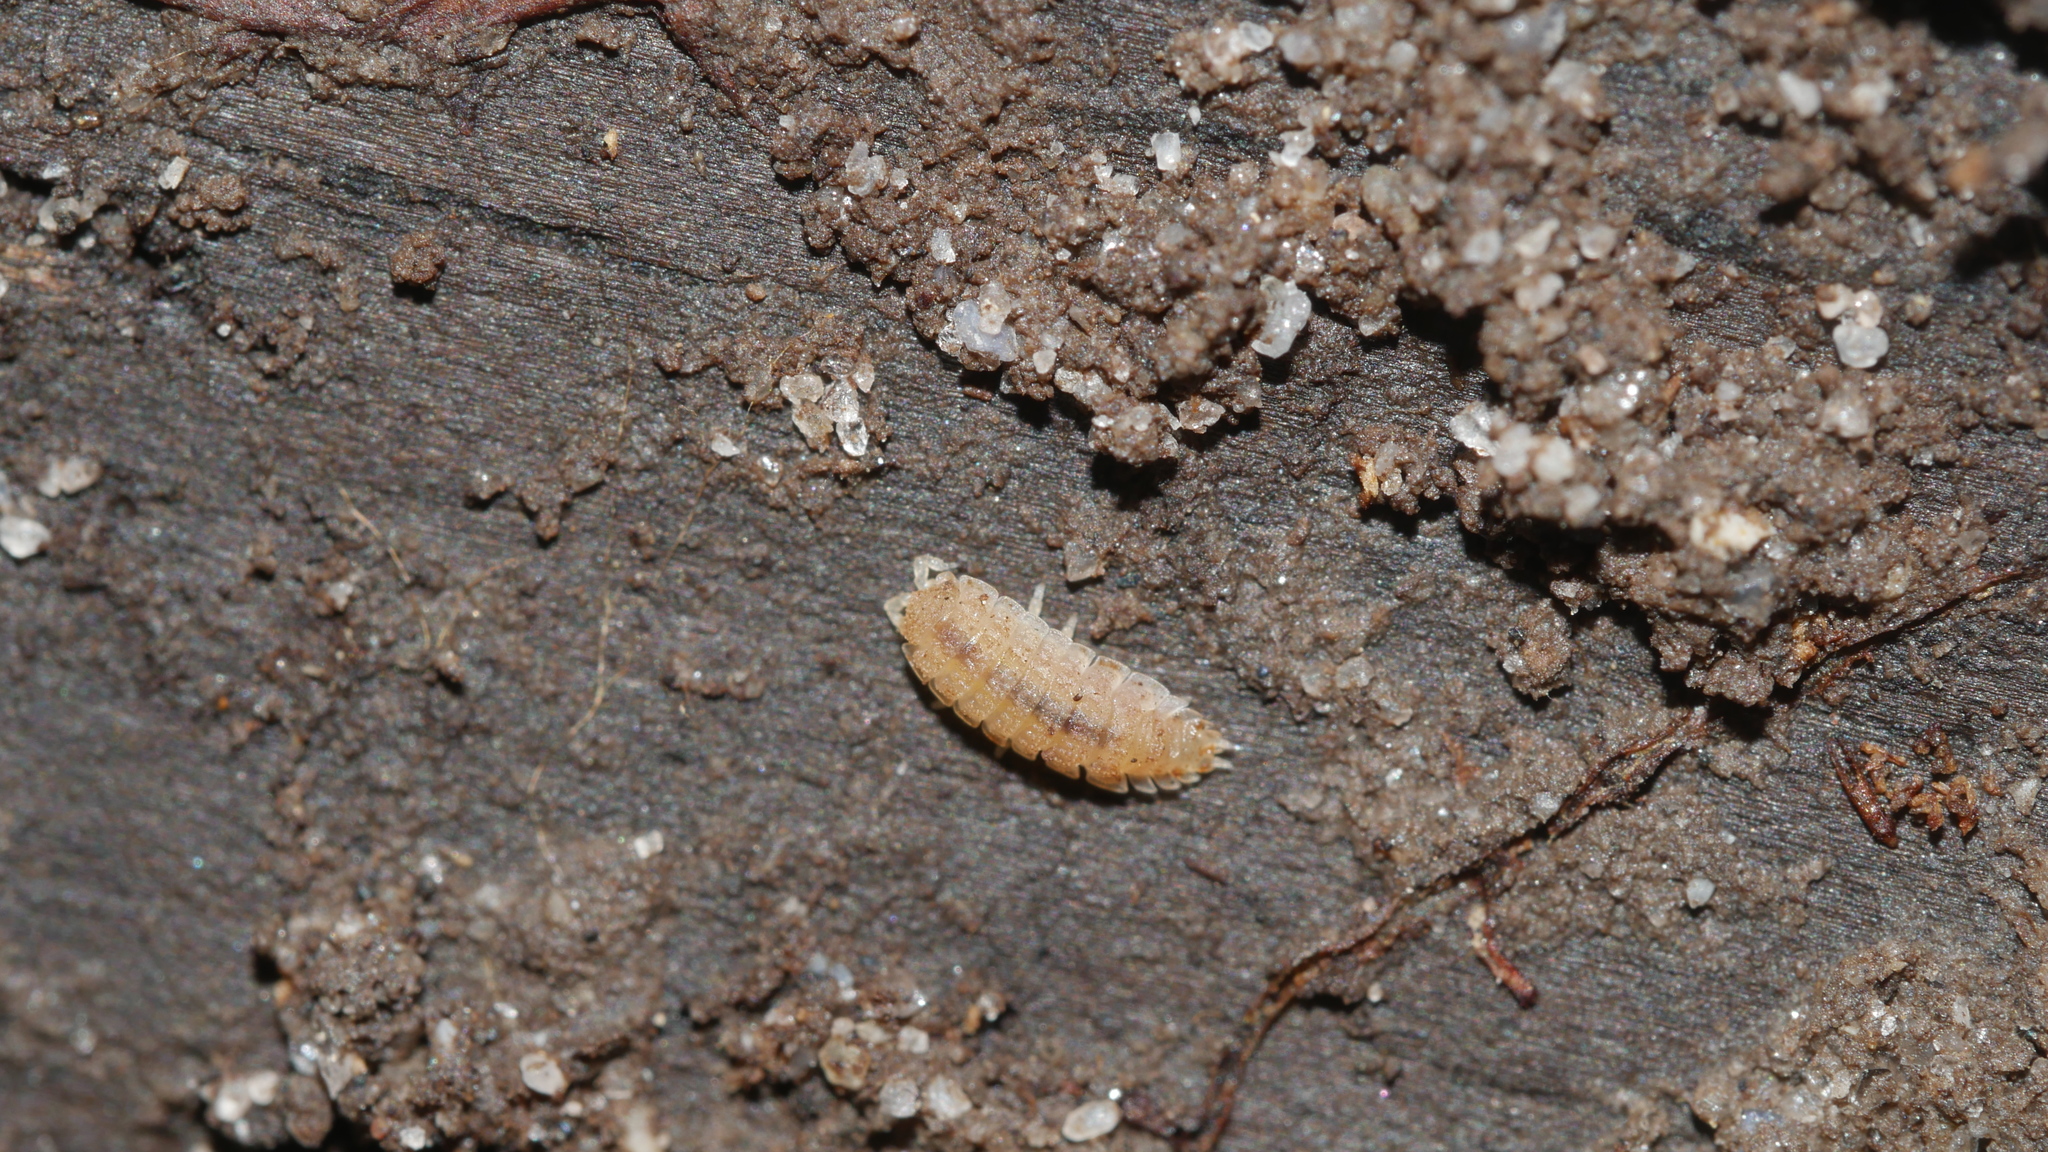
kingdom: Animalia
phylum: Arthropoda
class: Malacostraca
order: Isopoda
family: Trichoniscidae
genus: Haplophthalmus
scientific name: Haplophthalmus danicus
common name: Pillbug
